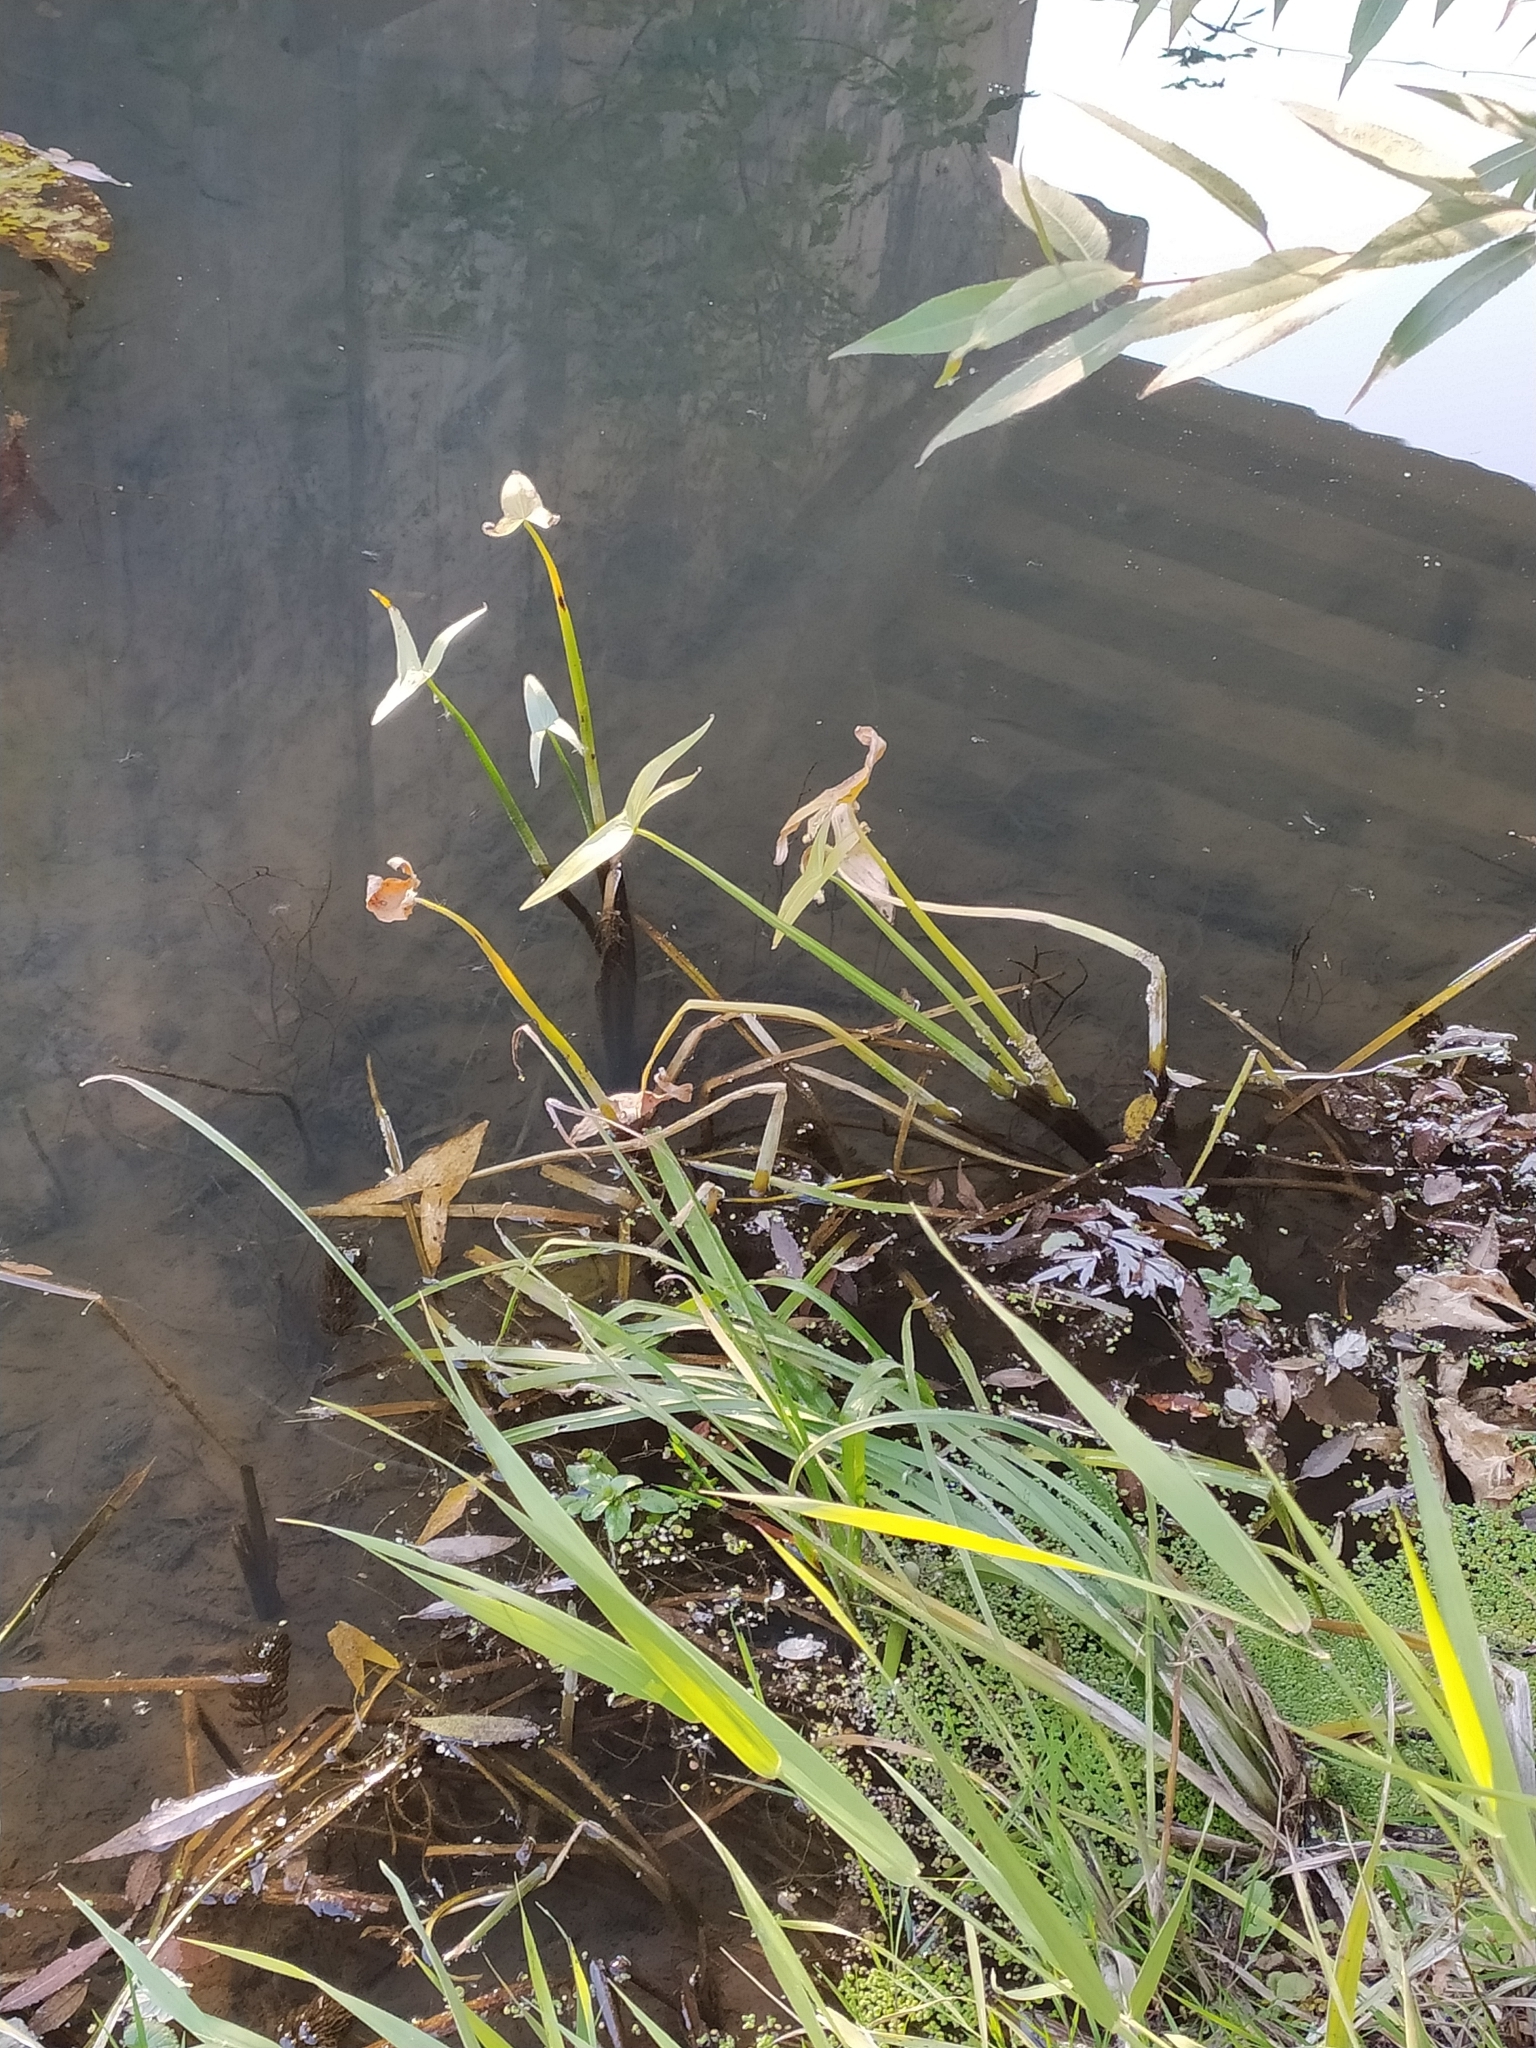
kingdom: Plantae
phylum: Tracheophyta
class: Liliopsida
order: Alismatales
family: Alismataceae
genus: Sagittaria
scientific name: Sagittaria sagittifolia
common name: Arrowhead
